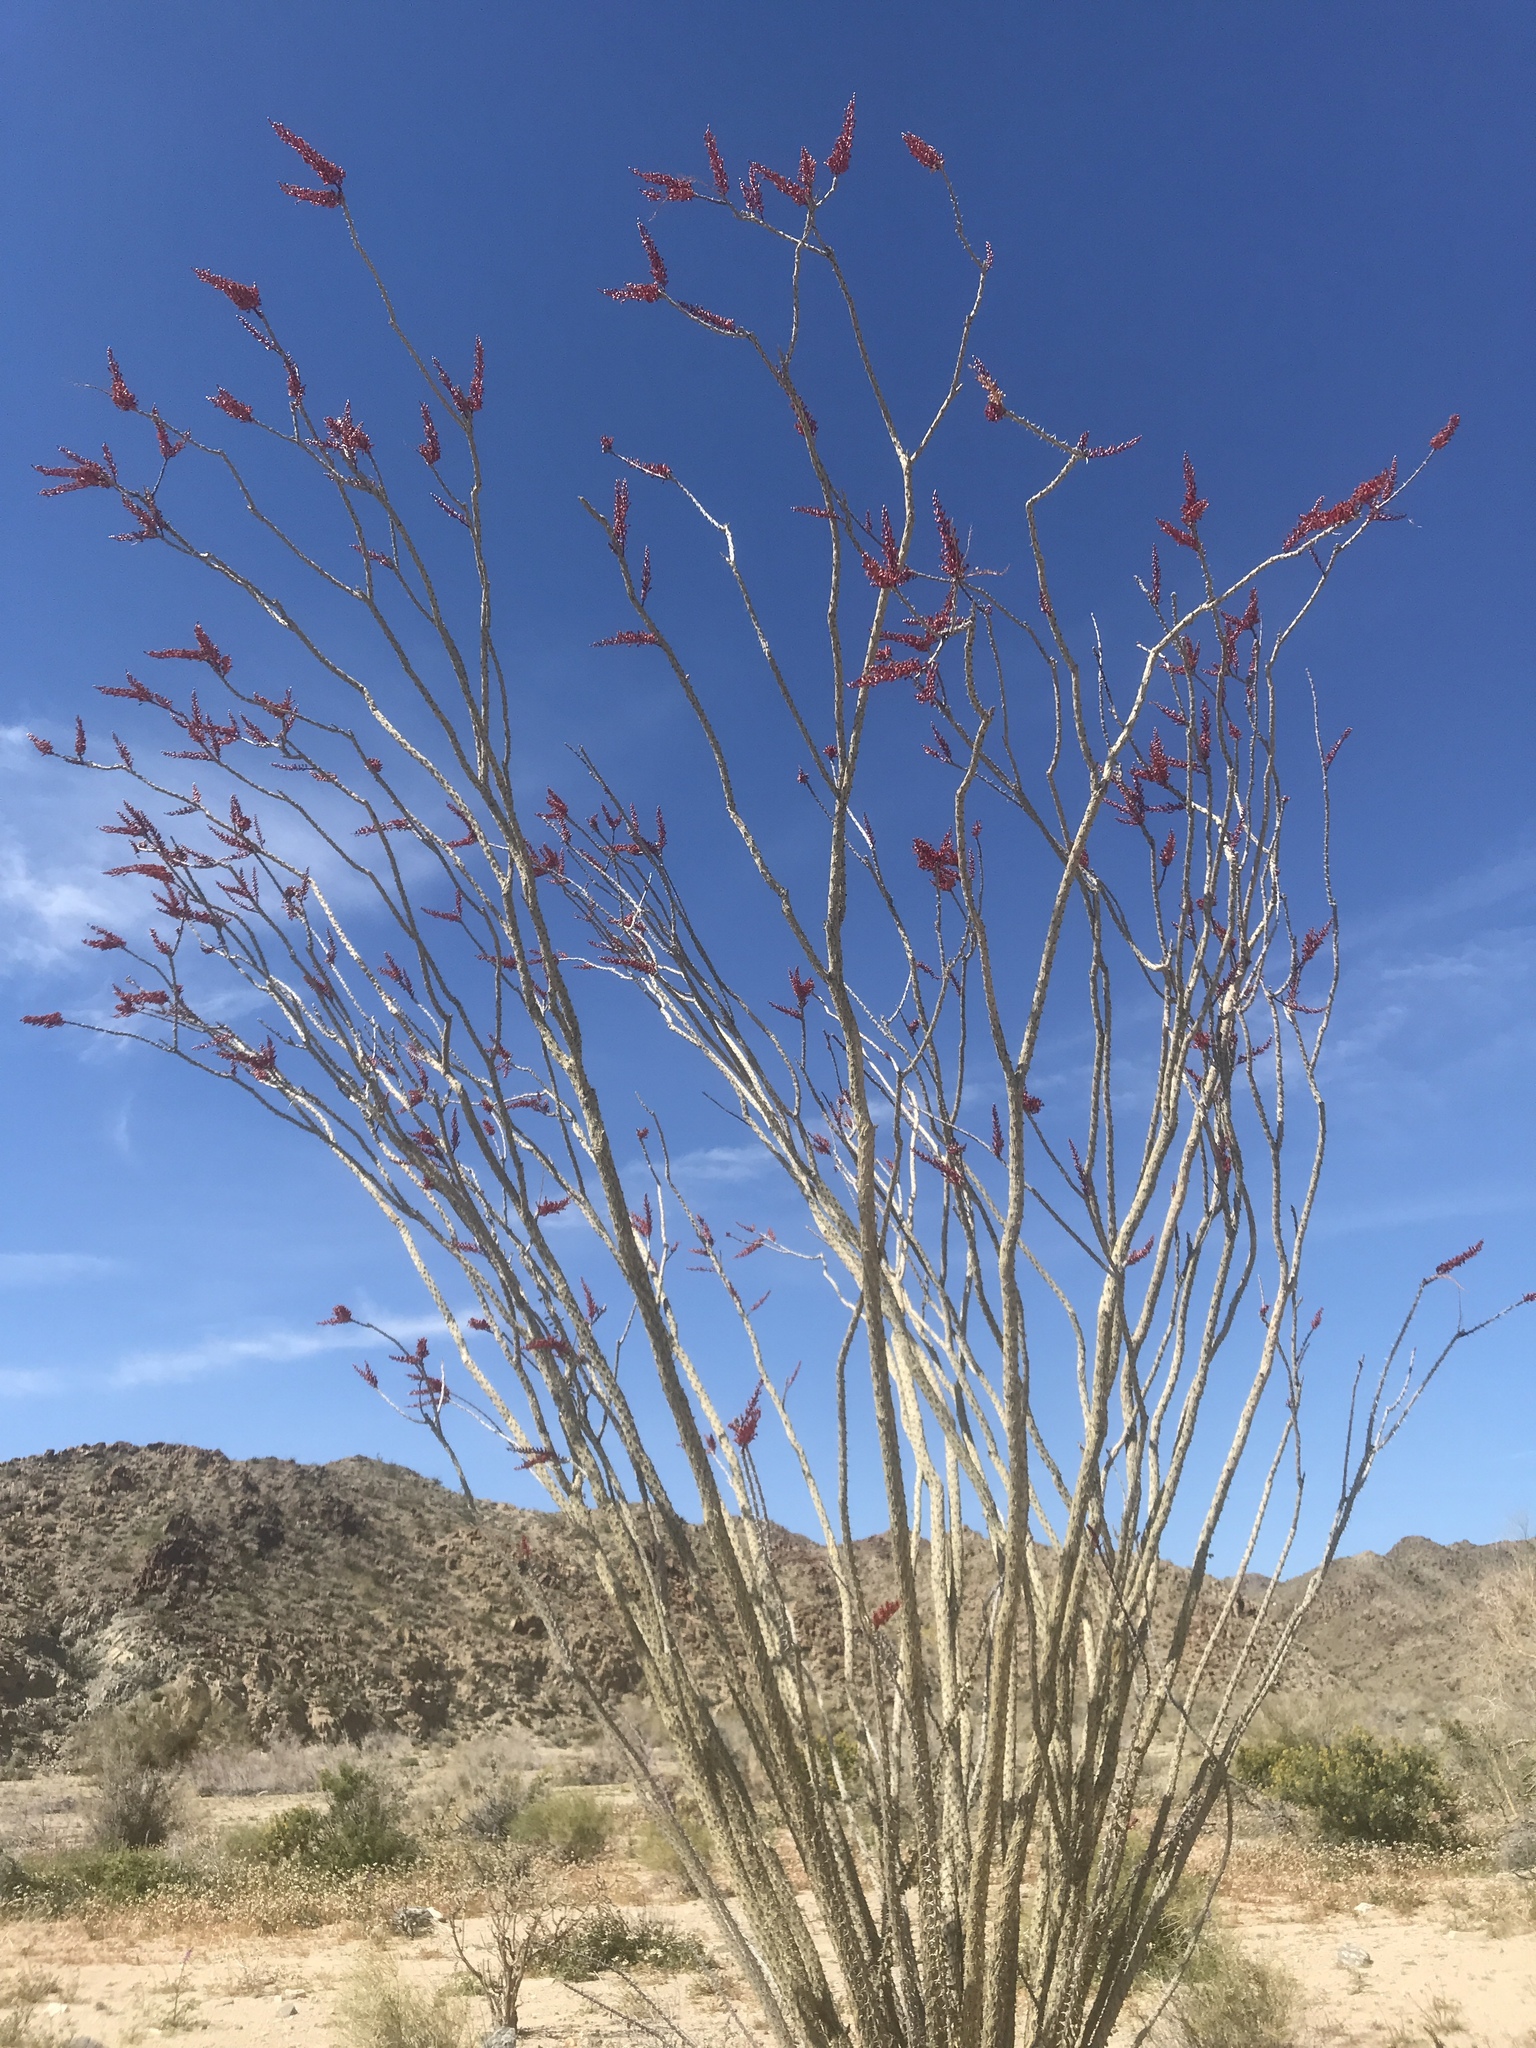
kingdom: Plantae
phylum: Tracheophyta
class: Magnoliopsida
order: Ericales
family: Fouquieriaceae
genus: Fouquieria
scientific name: Fouquieria splendens
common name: Vine-cactus
